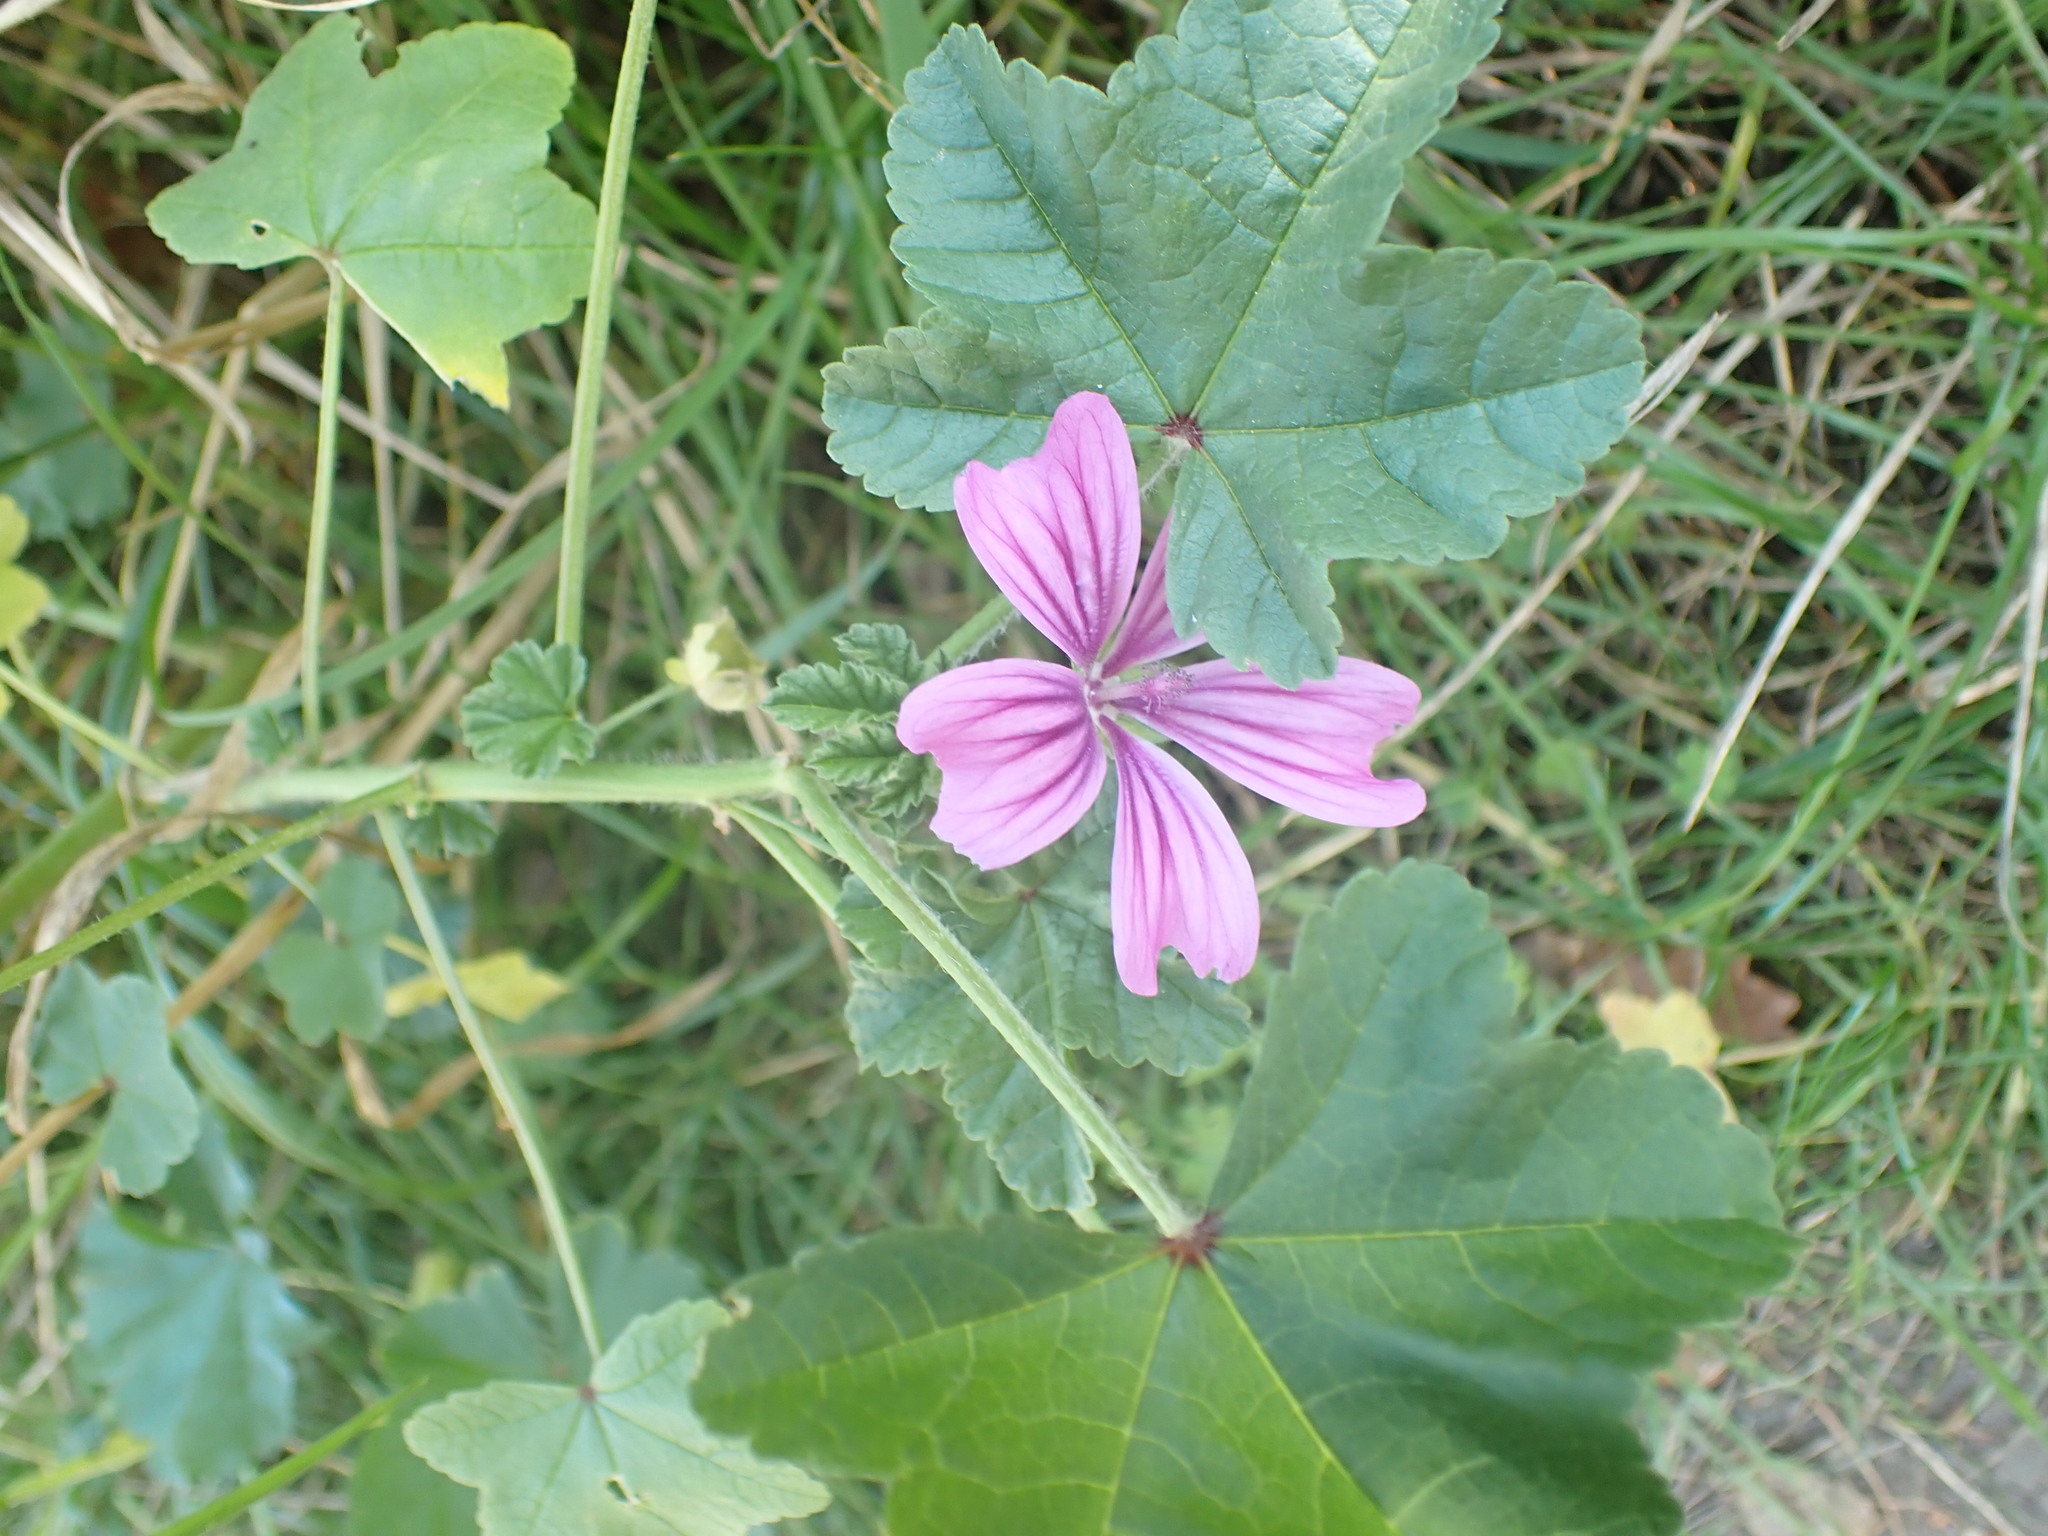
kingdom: Plantae
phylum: Tracheophyta
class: Magnoliopsida
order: Malvales
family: Malvaceae
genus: Malva
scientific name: Malva sylvestris
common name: Common mallow
